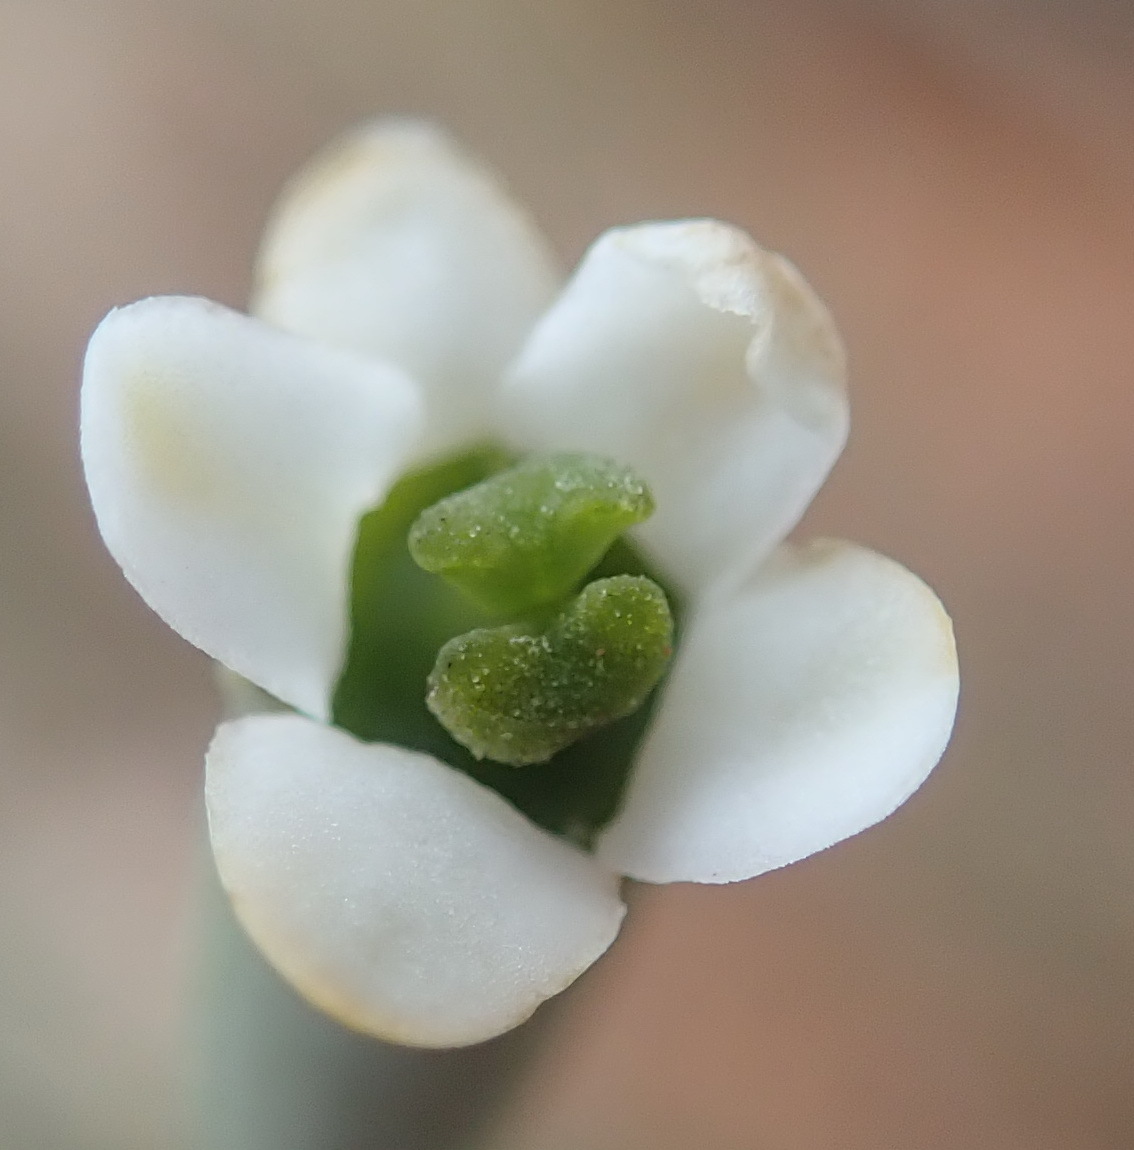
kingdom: Plantae
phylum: Tracheophyta
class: Magnoliopsida
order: Solanales
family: Montiniaceae
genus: Montinia
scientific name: Montinia caryophyllacea
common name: Wild clove-bush
